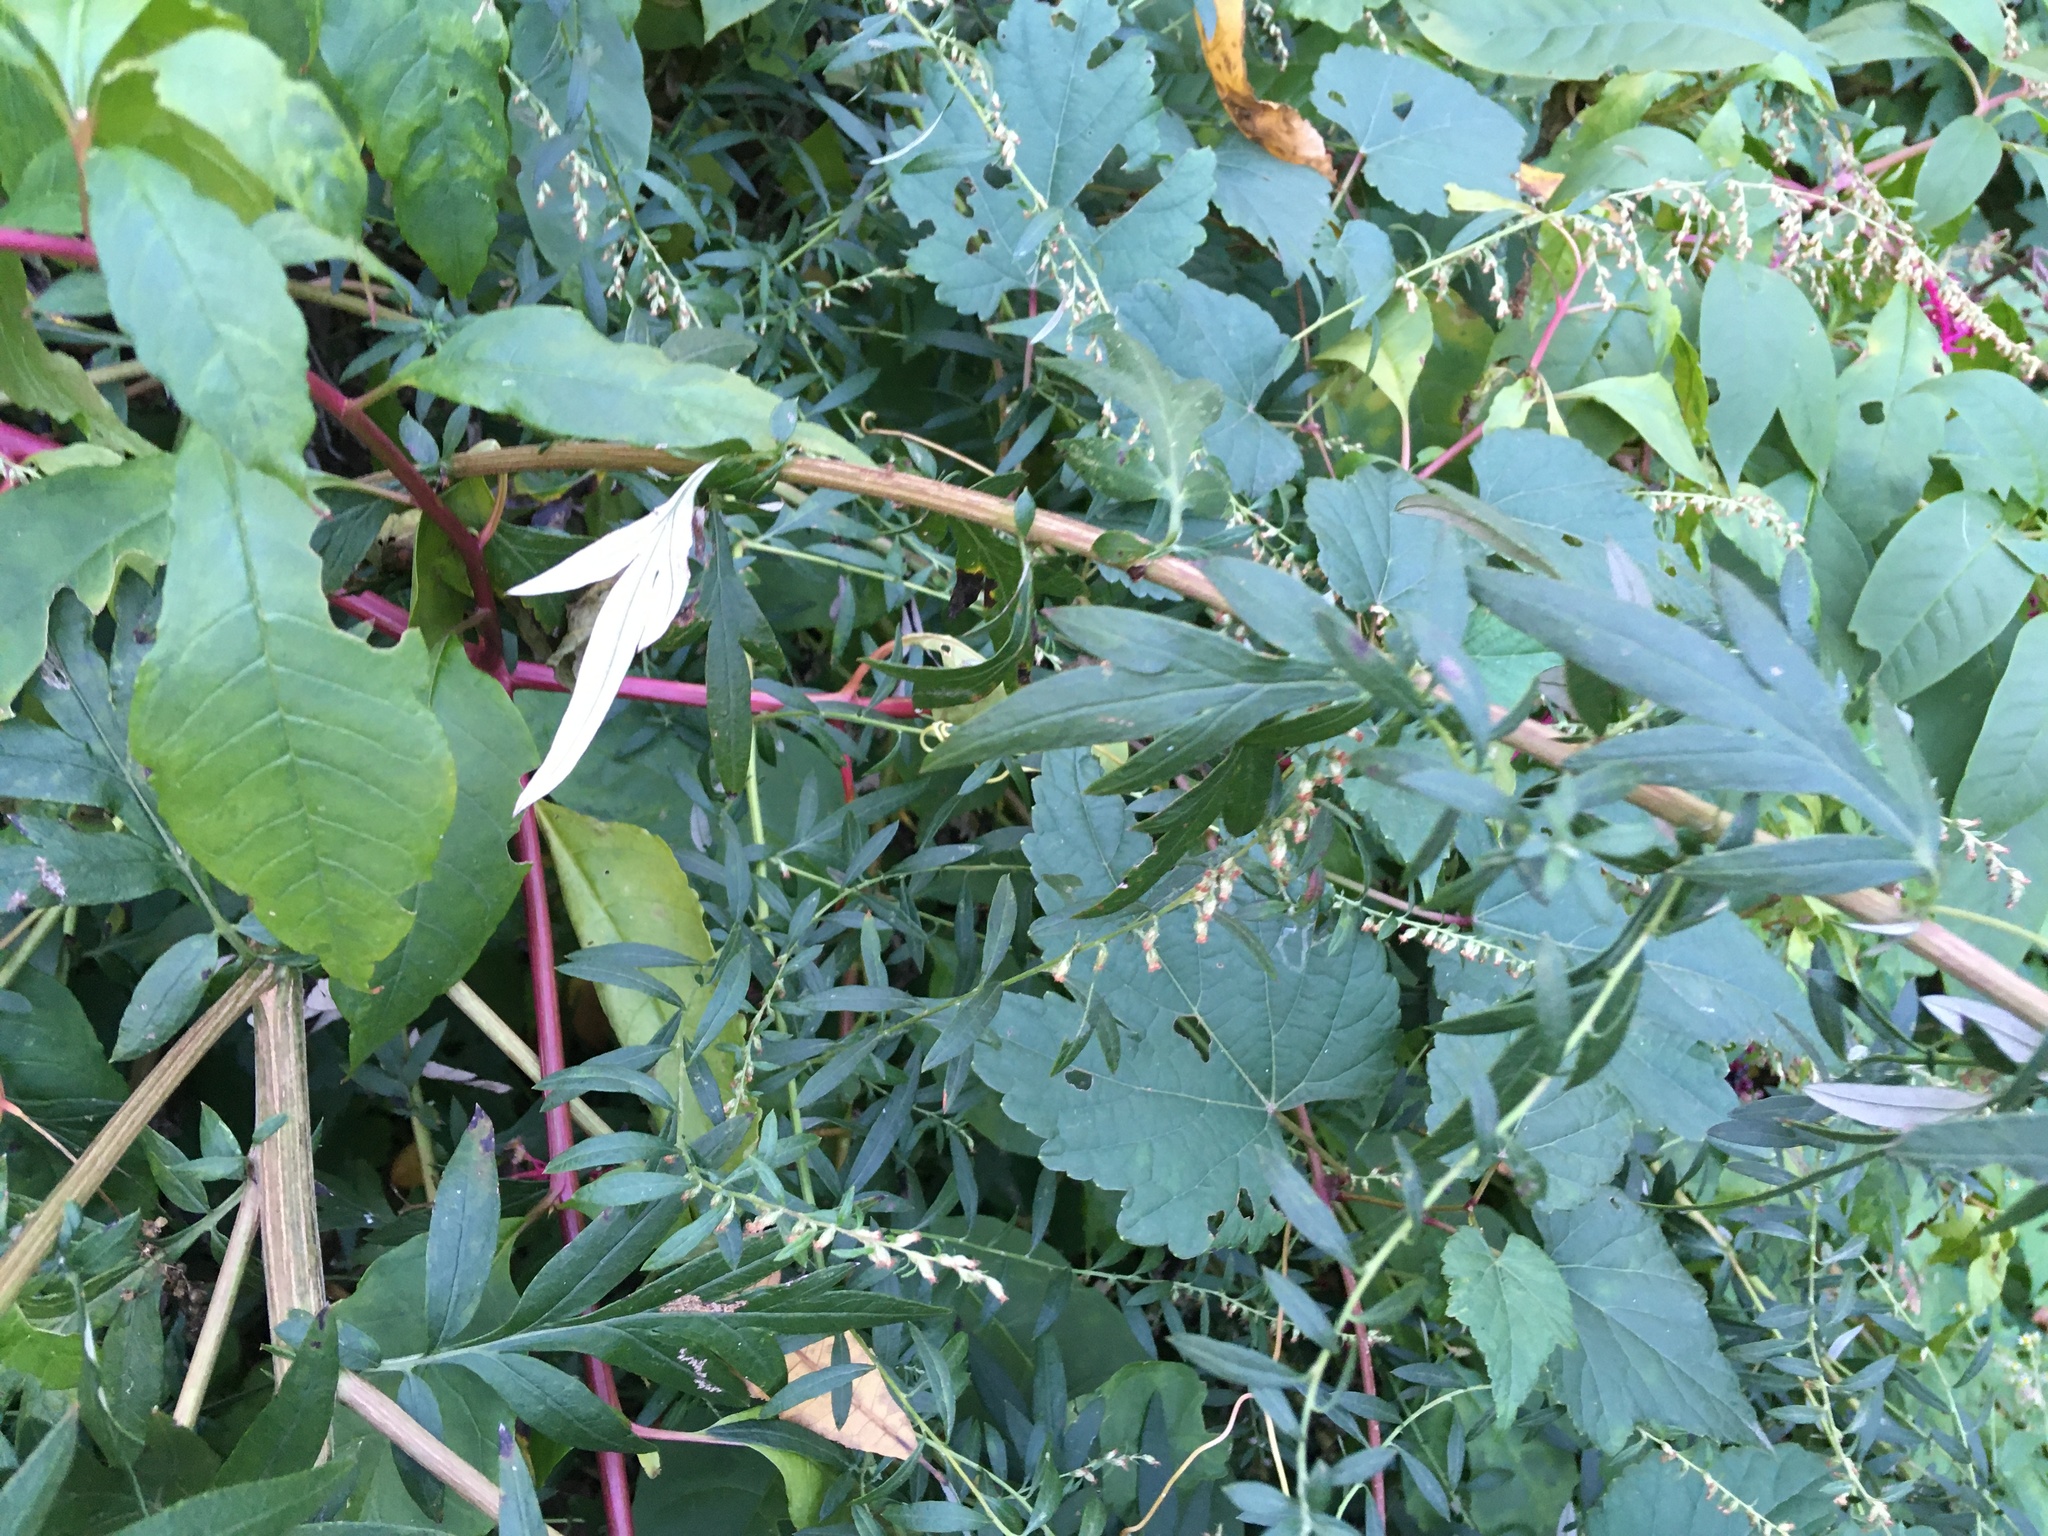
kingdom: Plantae
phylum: Tracheophyta
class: Magnoliopsida
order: Asterales
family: Asteraceae
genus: Artemisia
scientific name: Artemisia vulgaris
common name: Mugwort
